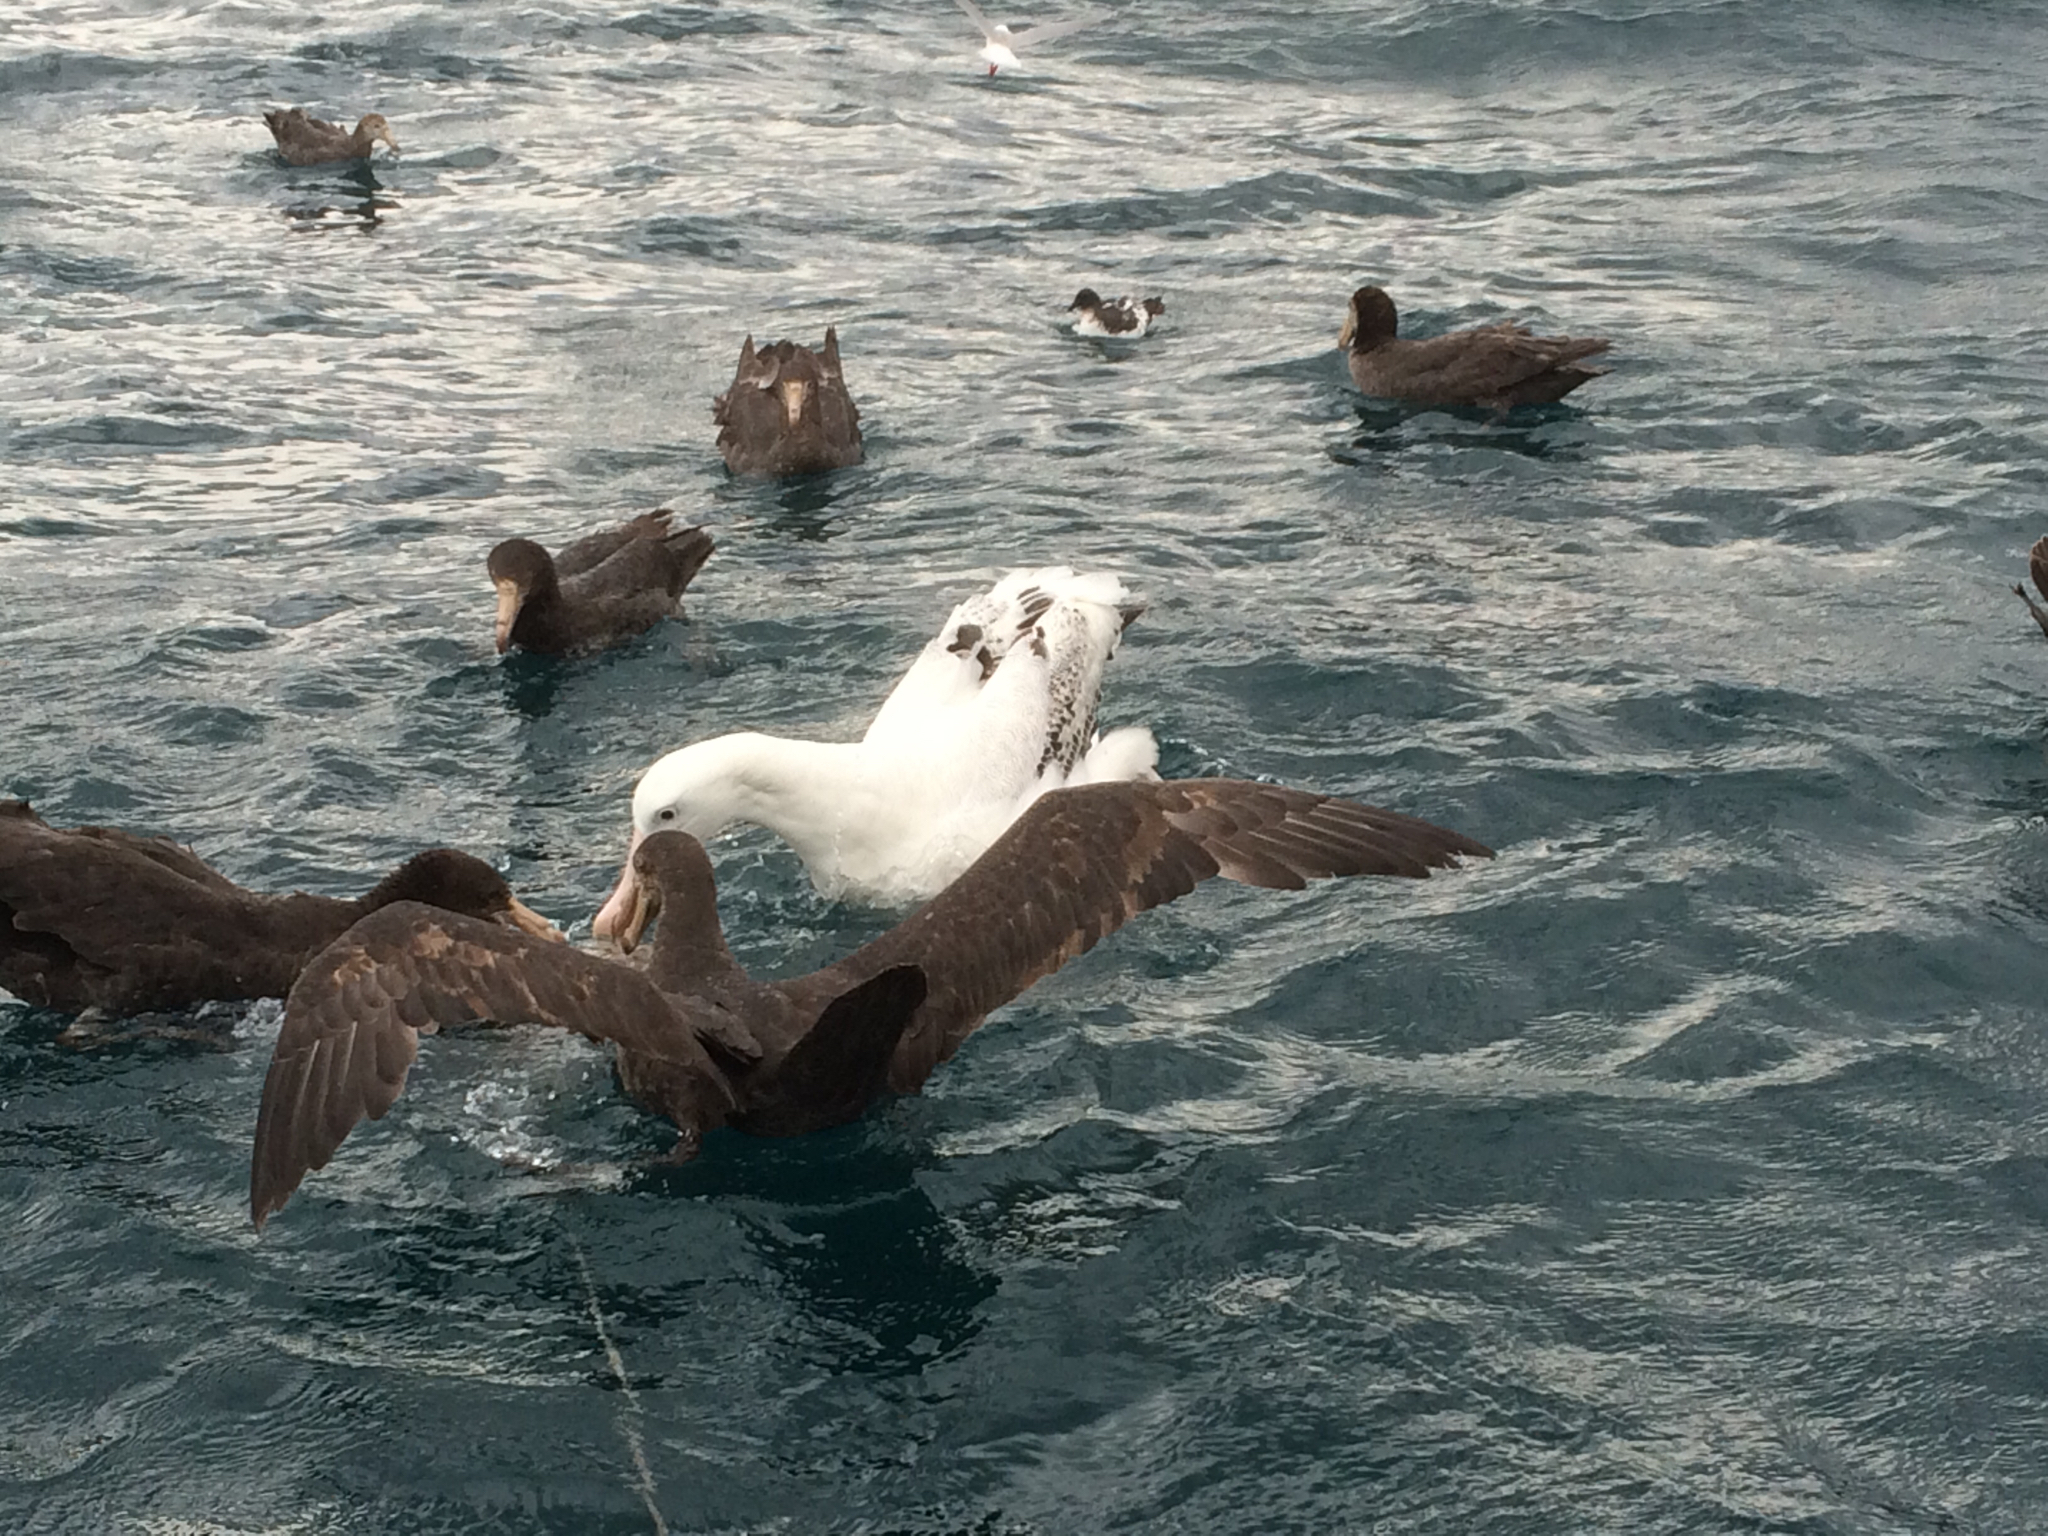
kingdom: Animalia
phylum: Chordata
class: Aves
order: Procellariiformes
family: Diomedeidae
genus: Diomedea
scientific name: Diomedea antipodensis
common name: Antipodean albatross
